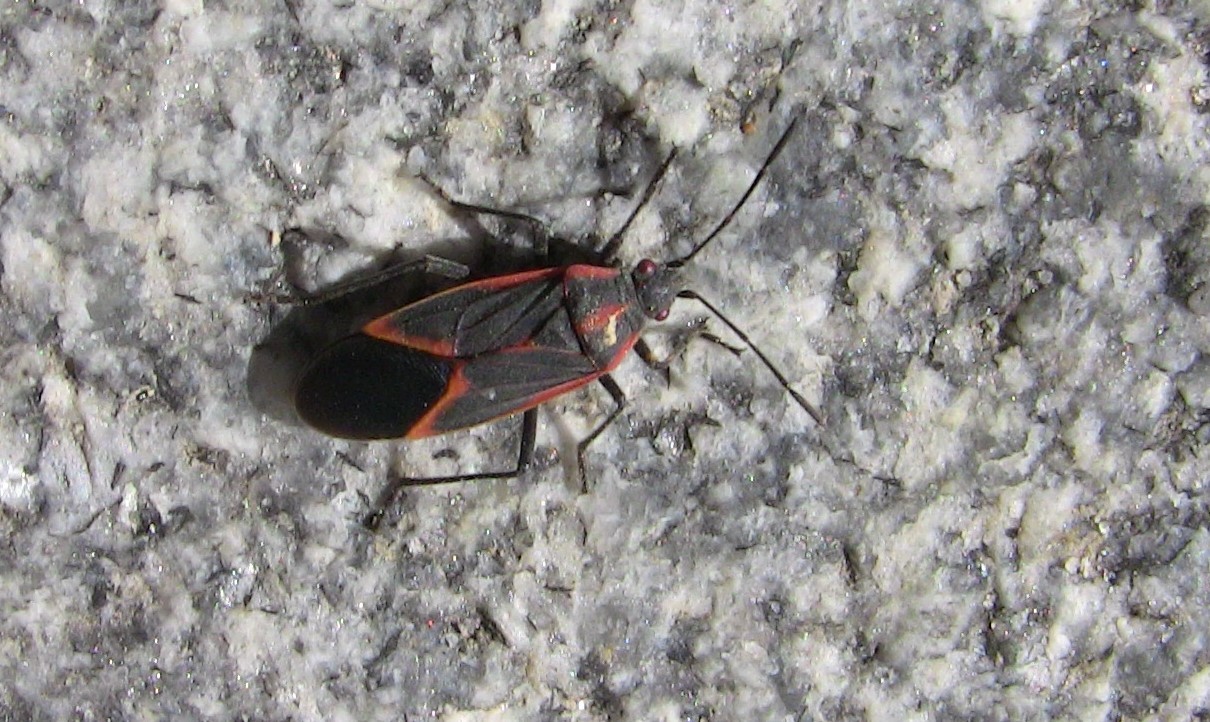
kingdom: Animalia
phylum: Arthropoda
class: Insecta
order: Hemiptera
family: Rhopalidae
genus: Boisea
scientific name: Boisea trivittata
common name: Boxelder bug
